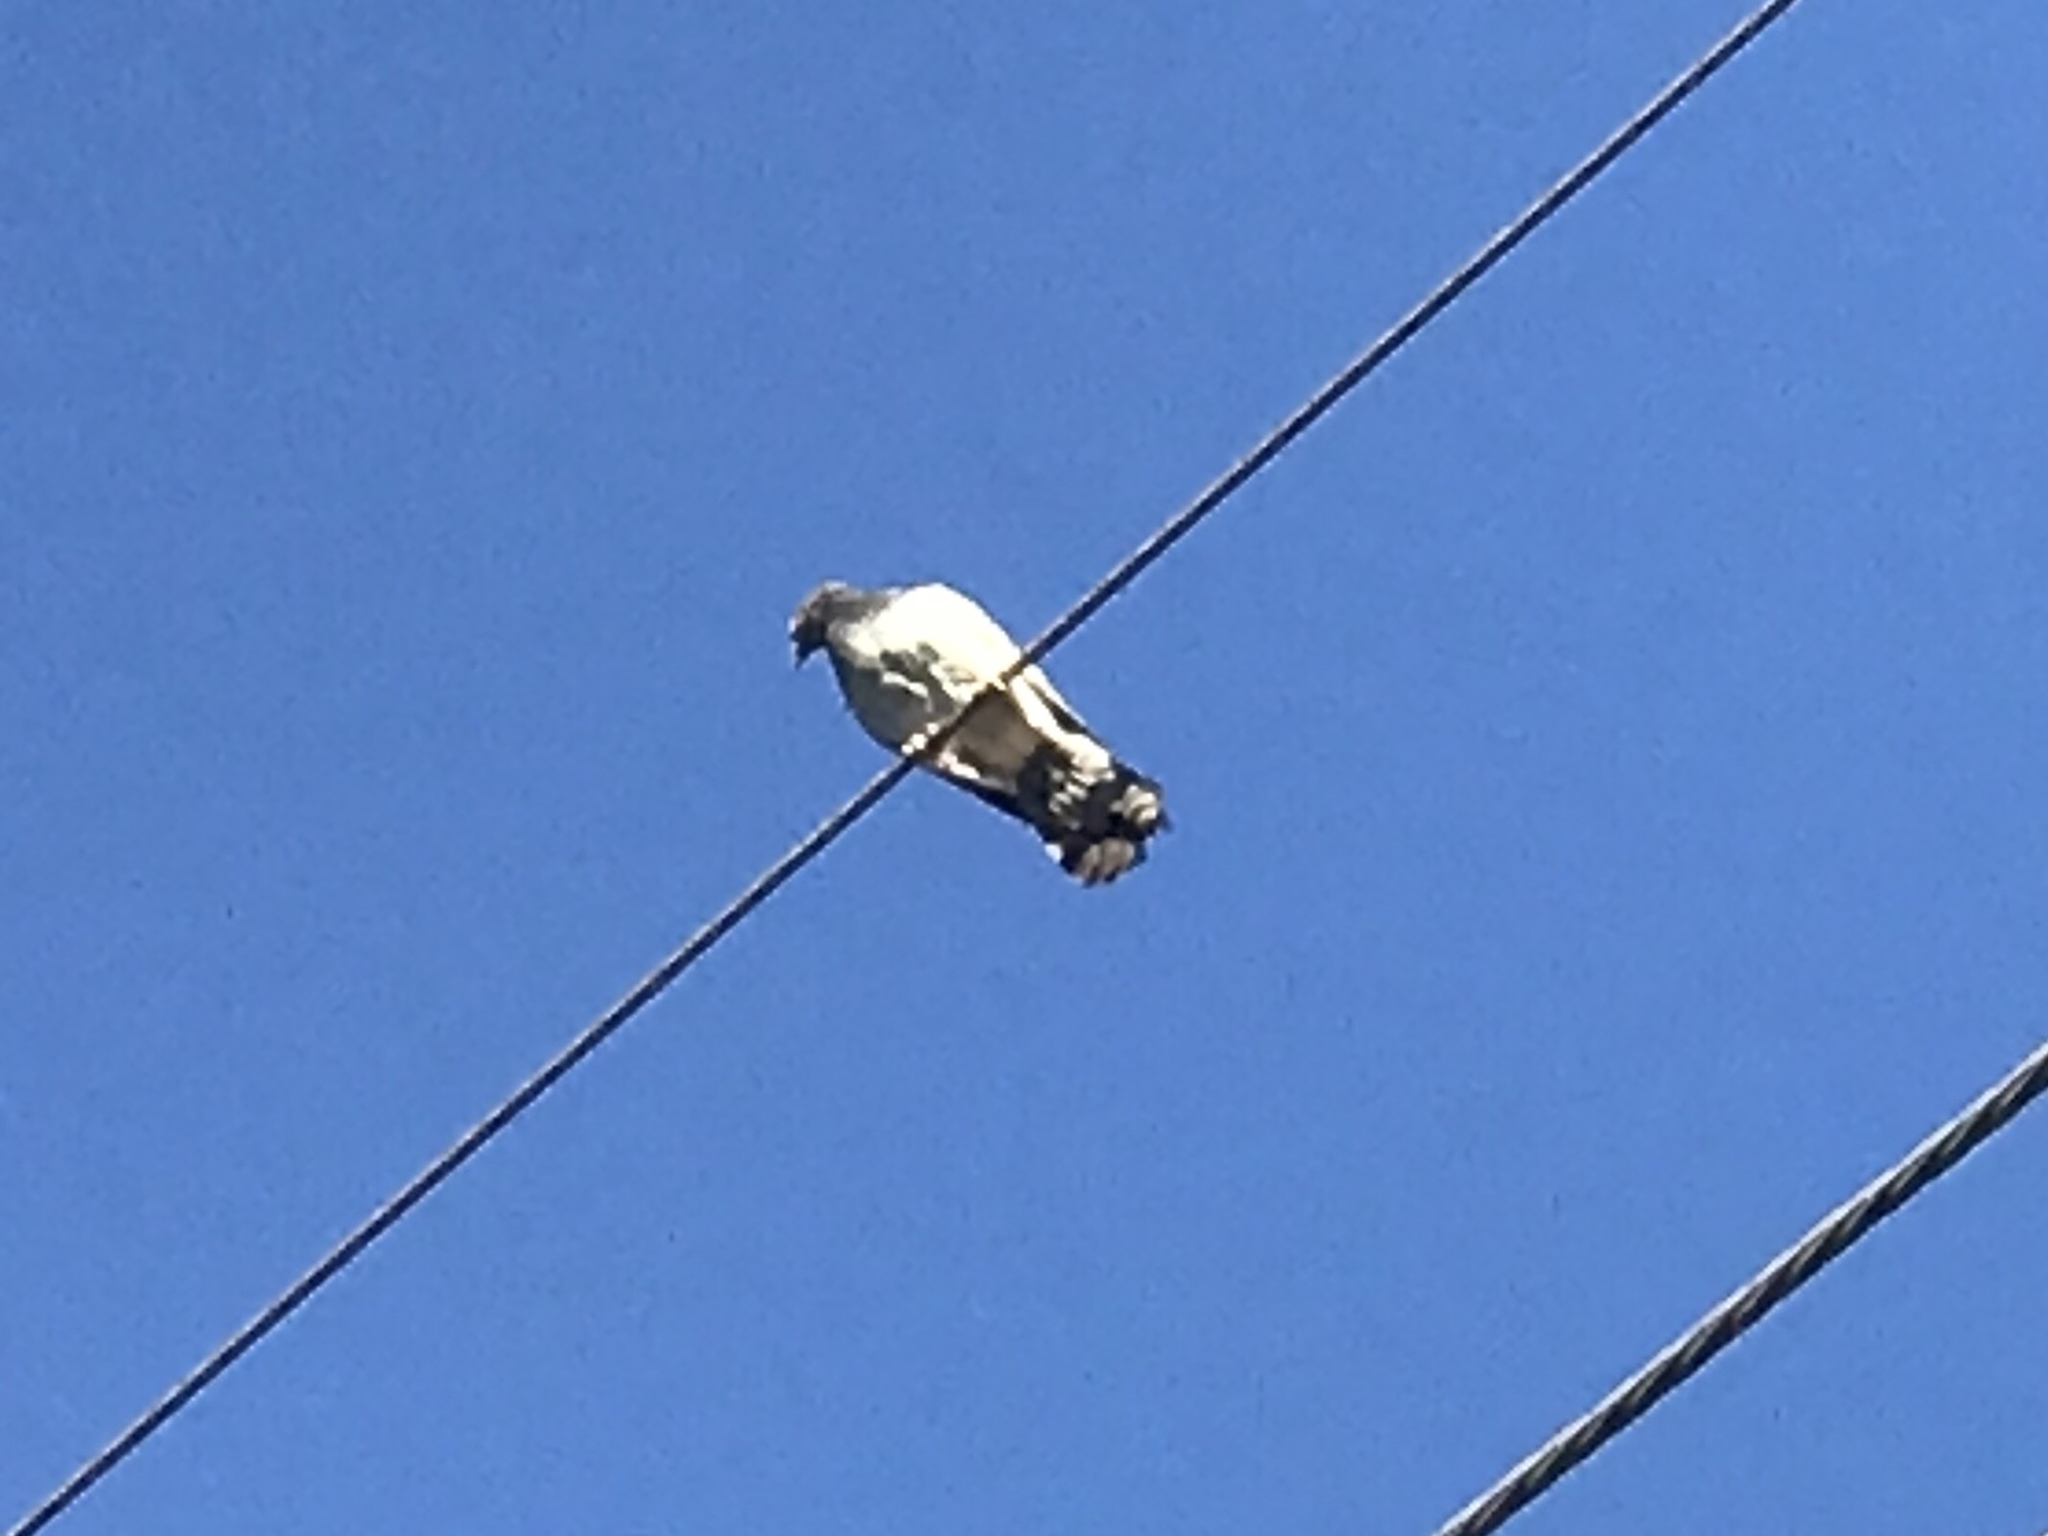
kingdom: Animalia
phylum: Chordata
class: Aves
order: Columbiformes
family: Columbidae
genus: Columba
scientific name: Columba livia
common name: Rock pigeon
